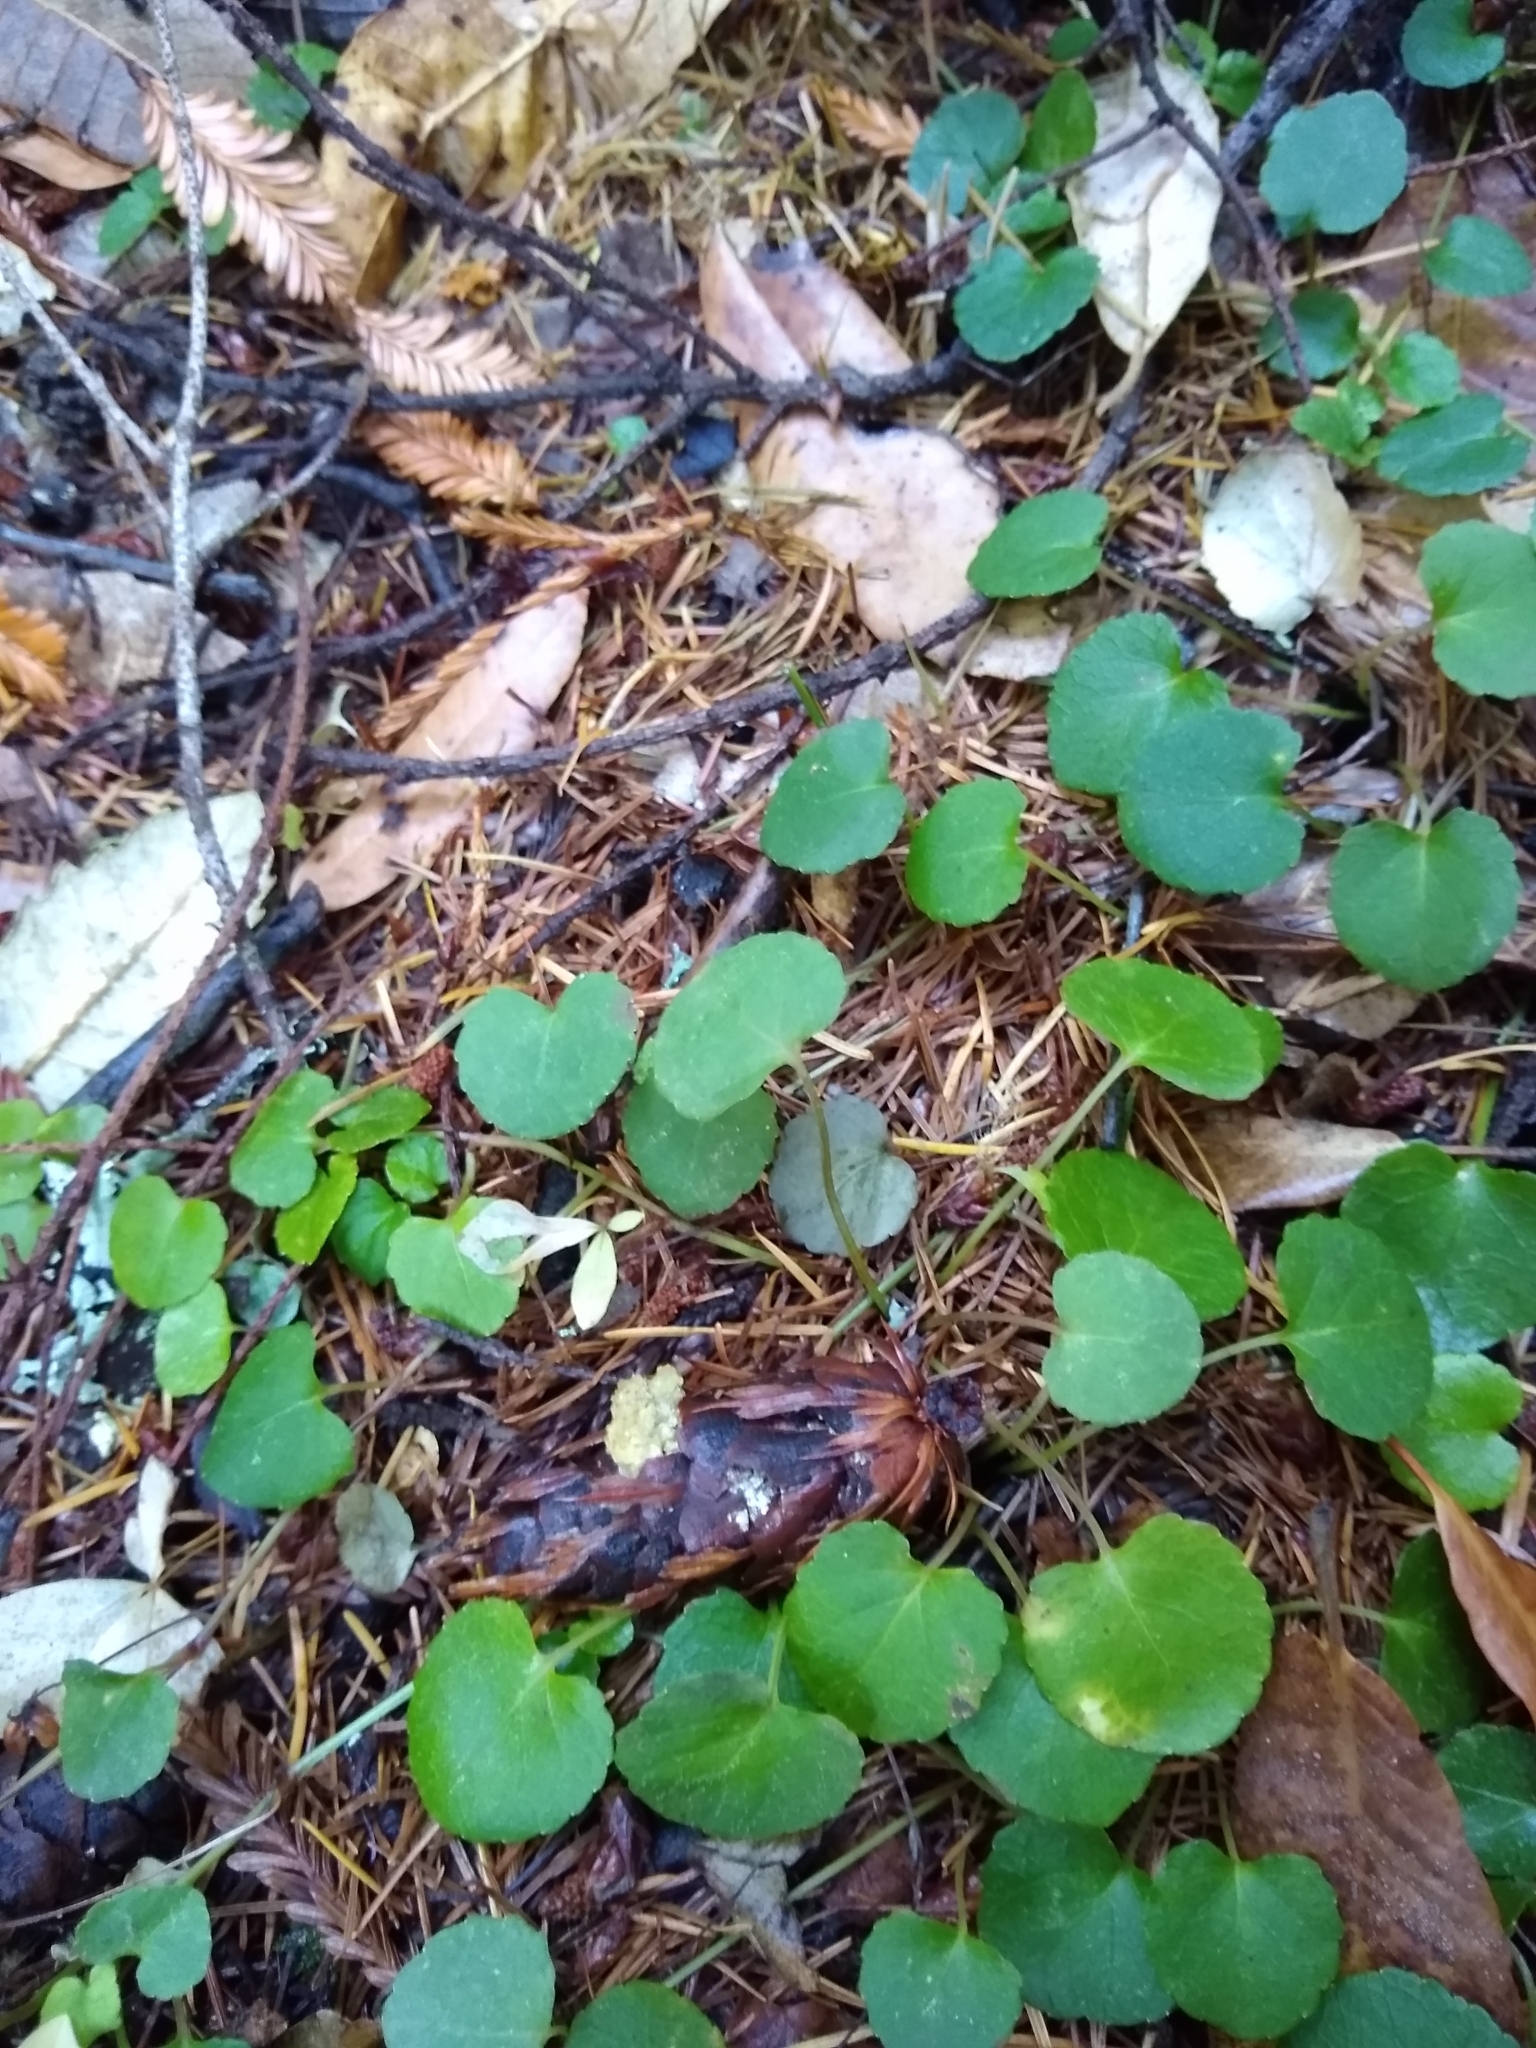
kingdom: Plantae
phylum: Tracheophyta
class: Magnoliopsida
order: Malpighiales
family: Violaceae
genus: Viola
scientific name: Viola sempervirens
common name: Evergreen violet
